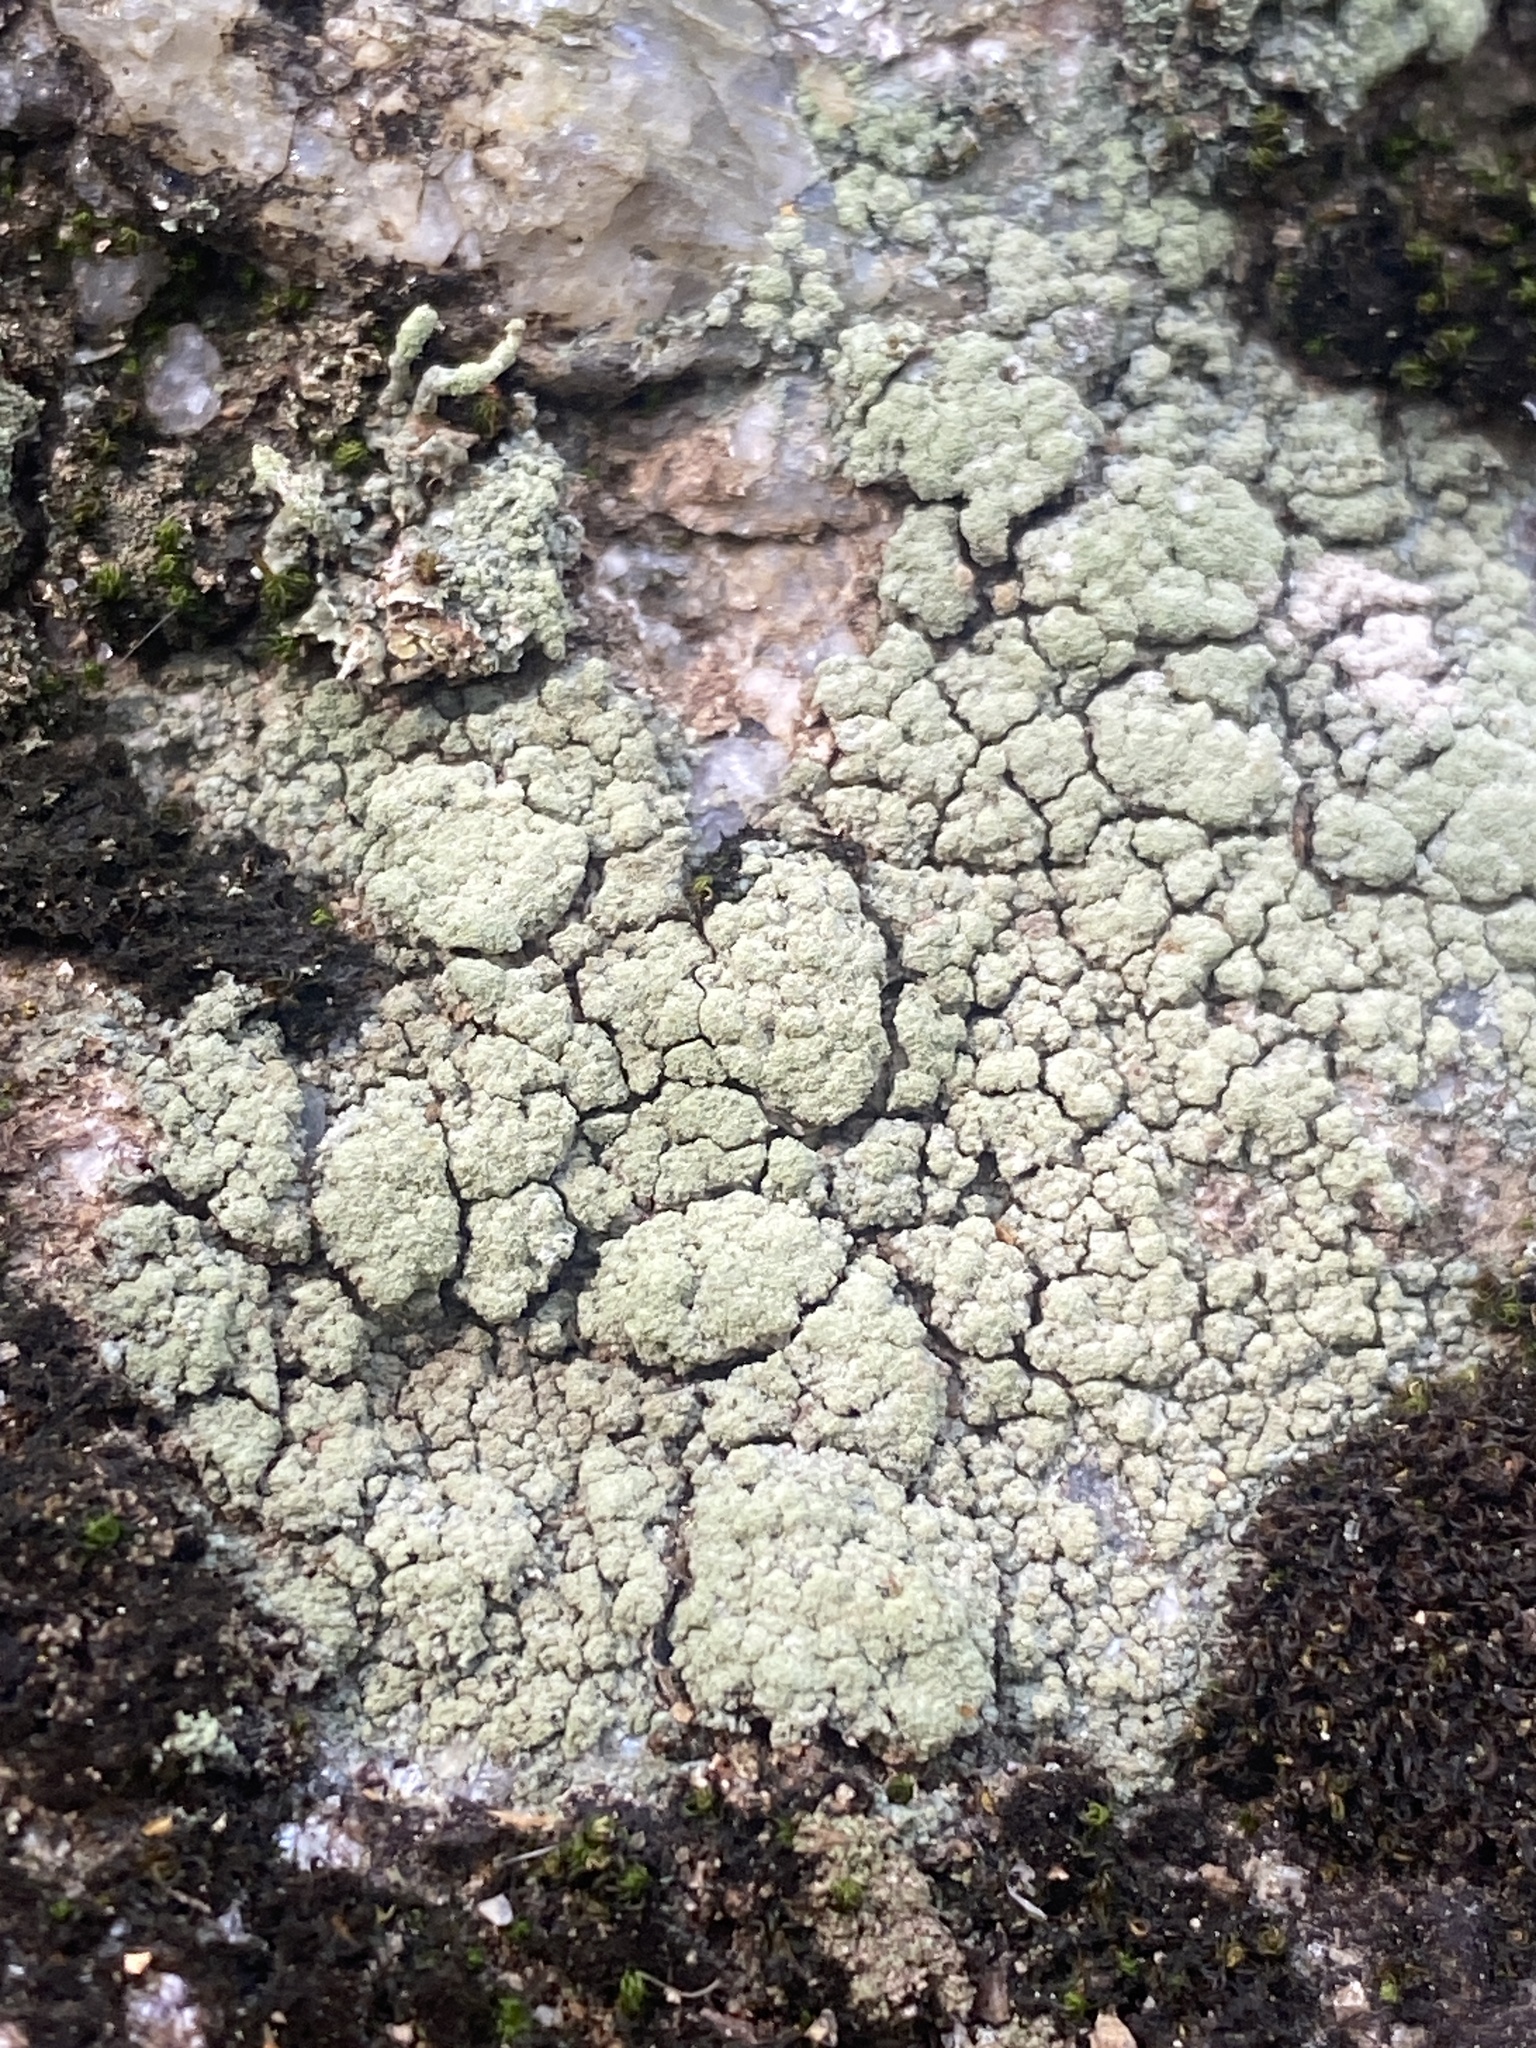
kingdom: Fungi
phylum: Ascomycota
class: Lecanoromycetes
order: Lecanorales
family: Lecanoraceae
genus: Vainionora
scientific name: Vainionora americana
